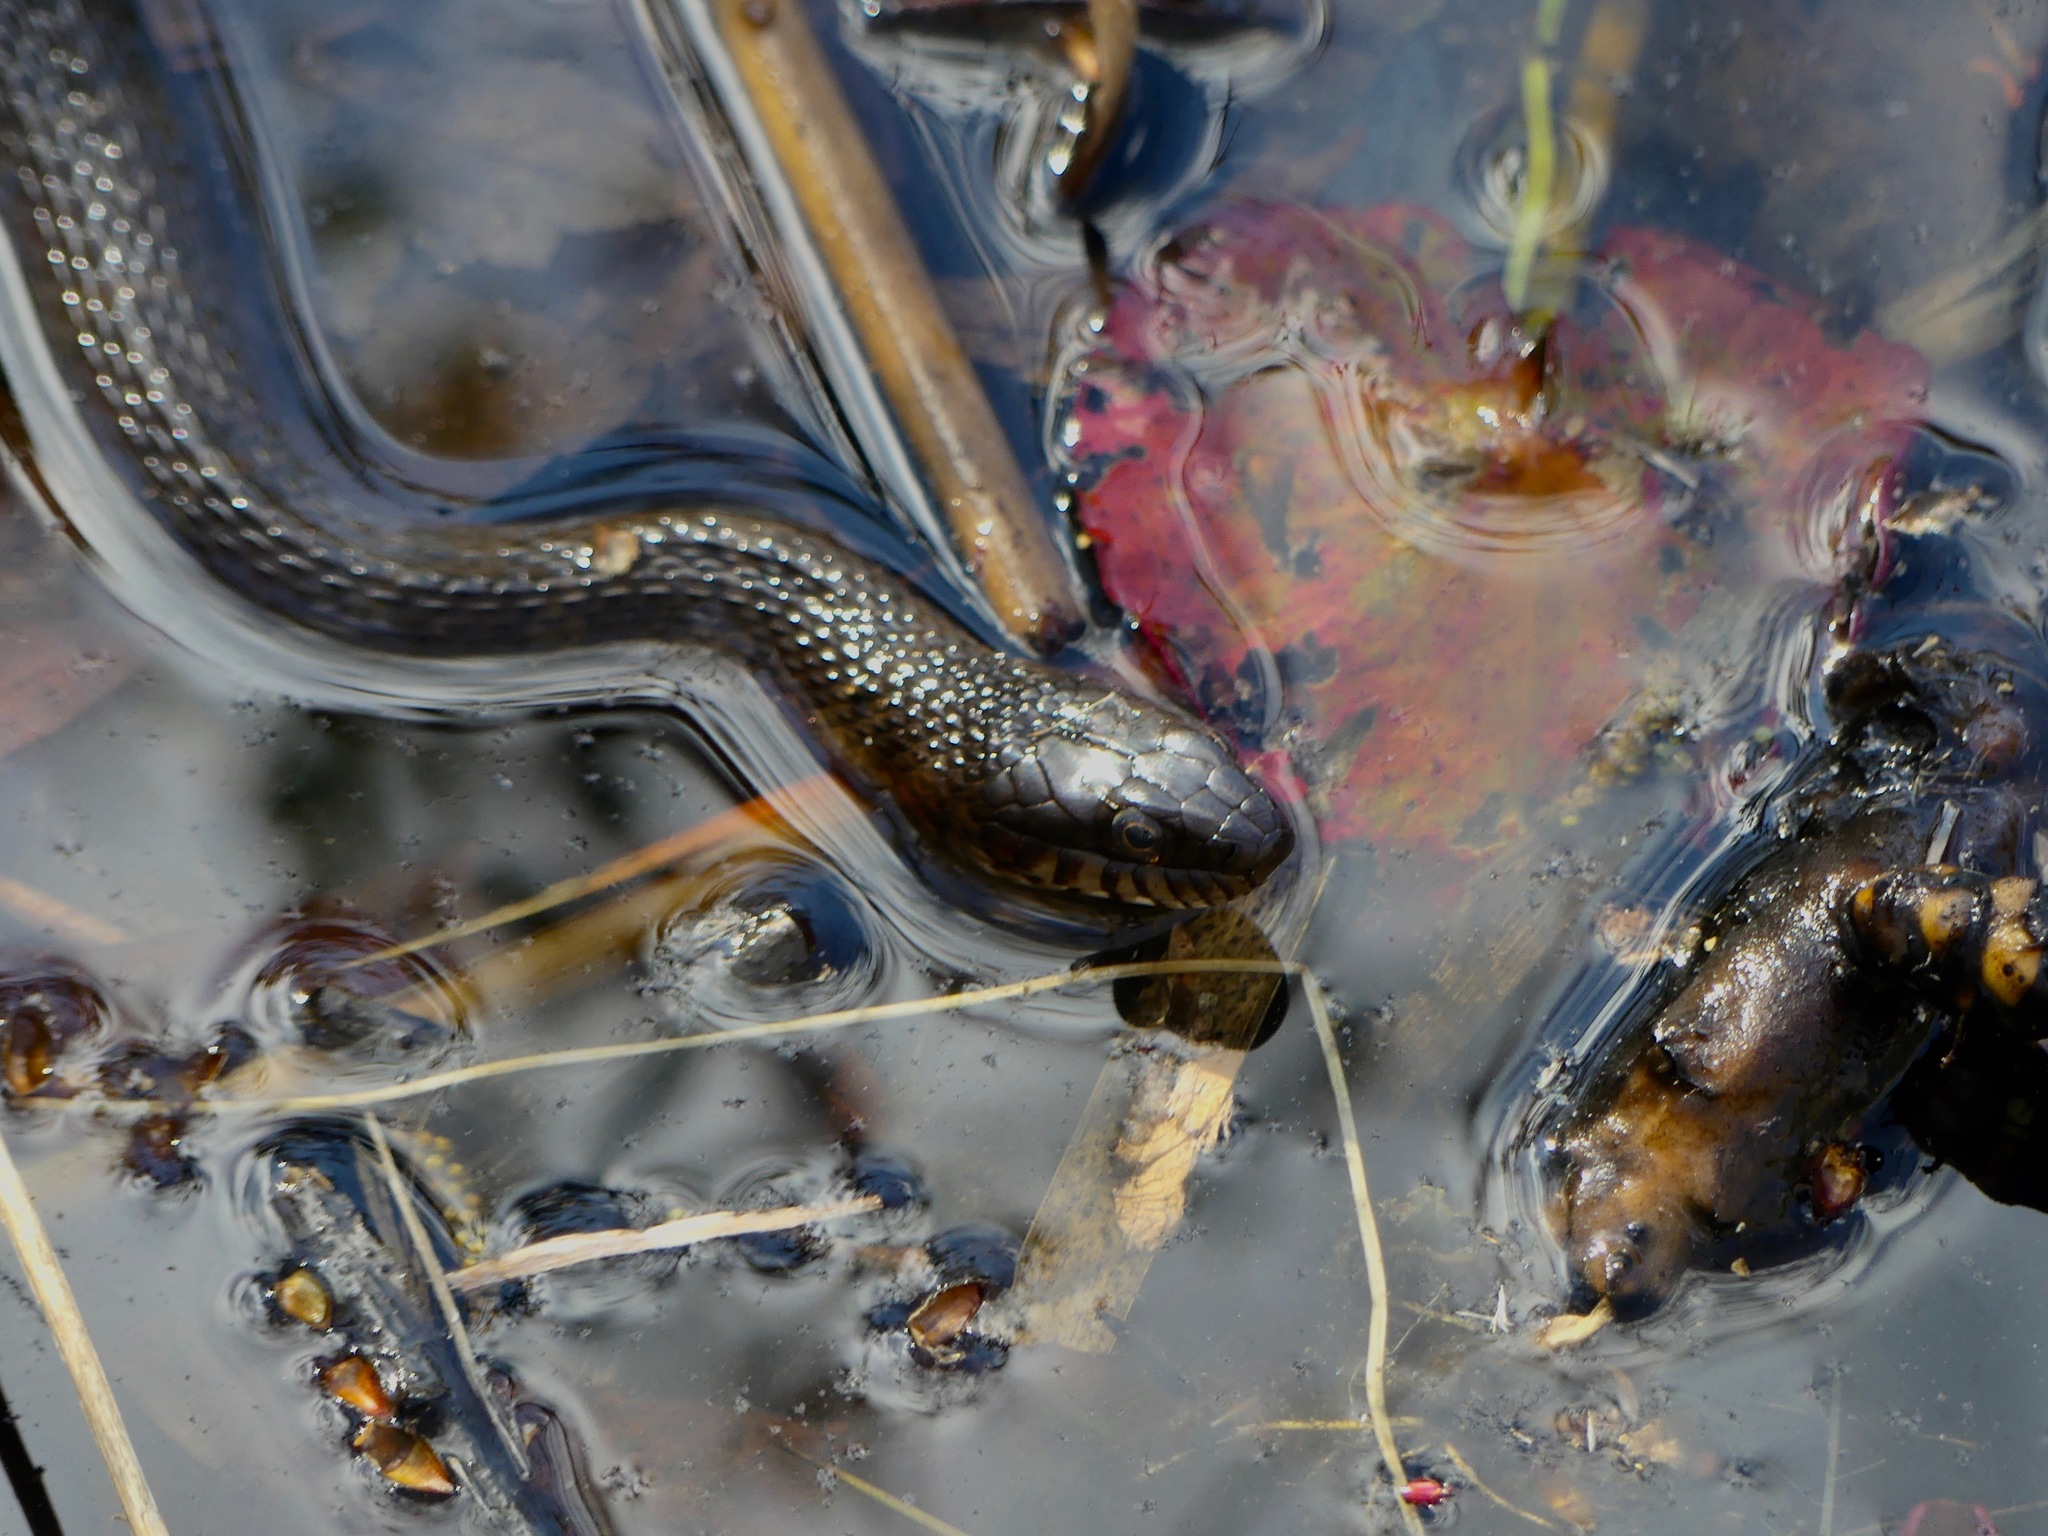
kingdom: Animalia
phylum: Chordata
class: Squamata
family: Colubridae
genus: Nerodia
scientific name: Nerodia sipedon
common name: Northern water snake
